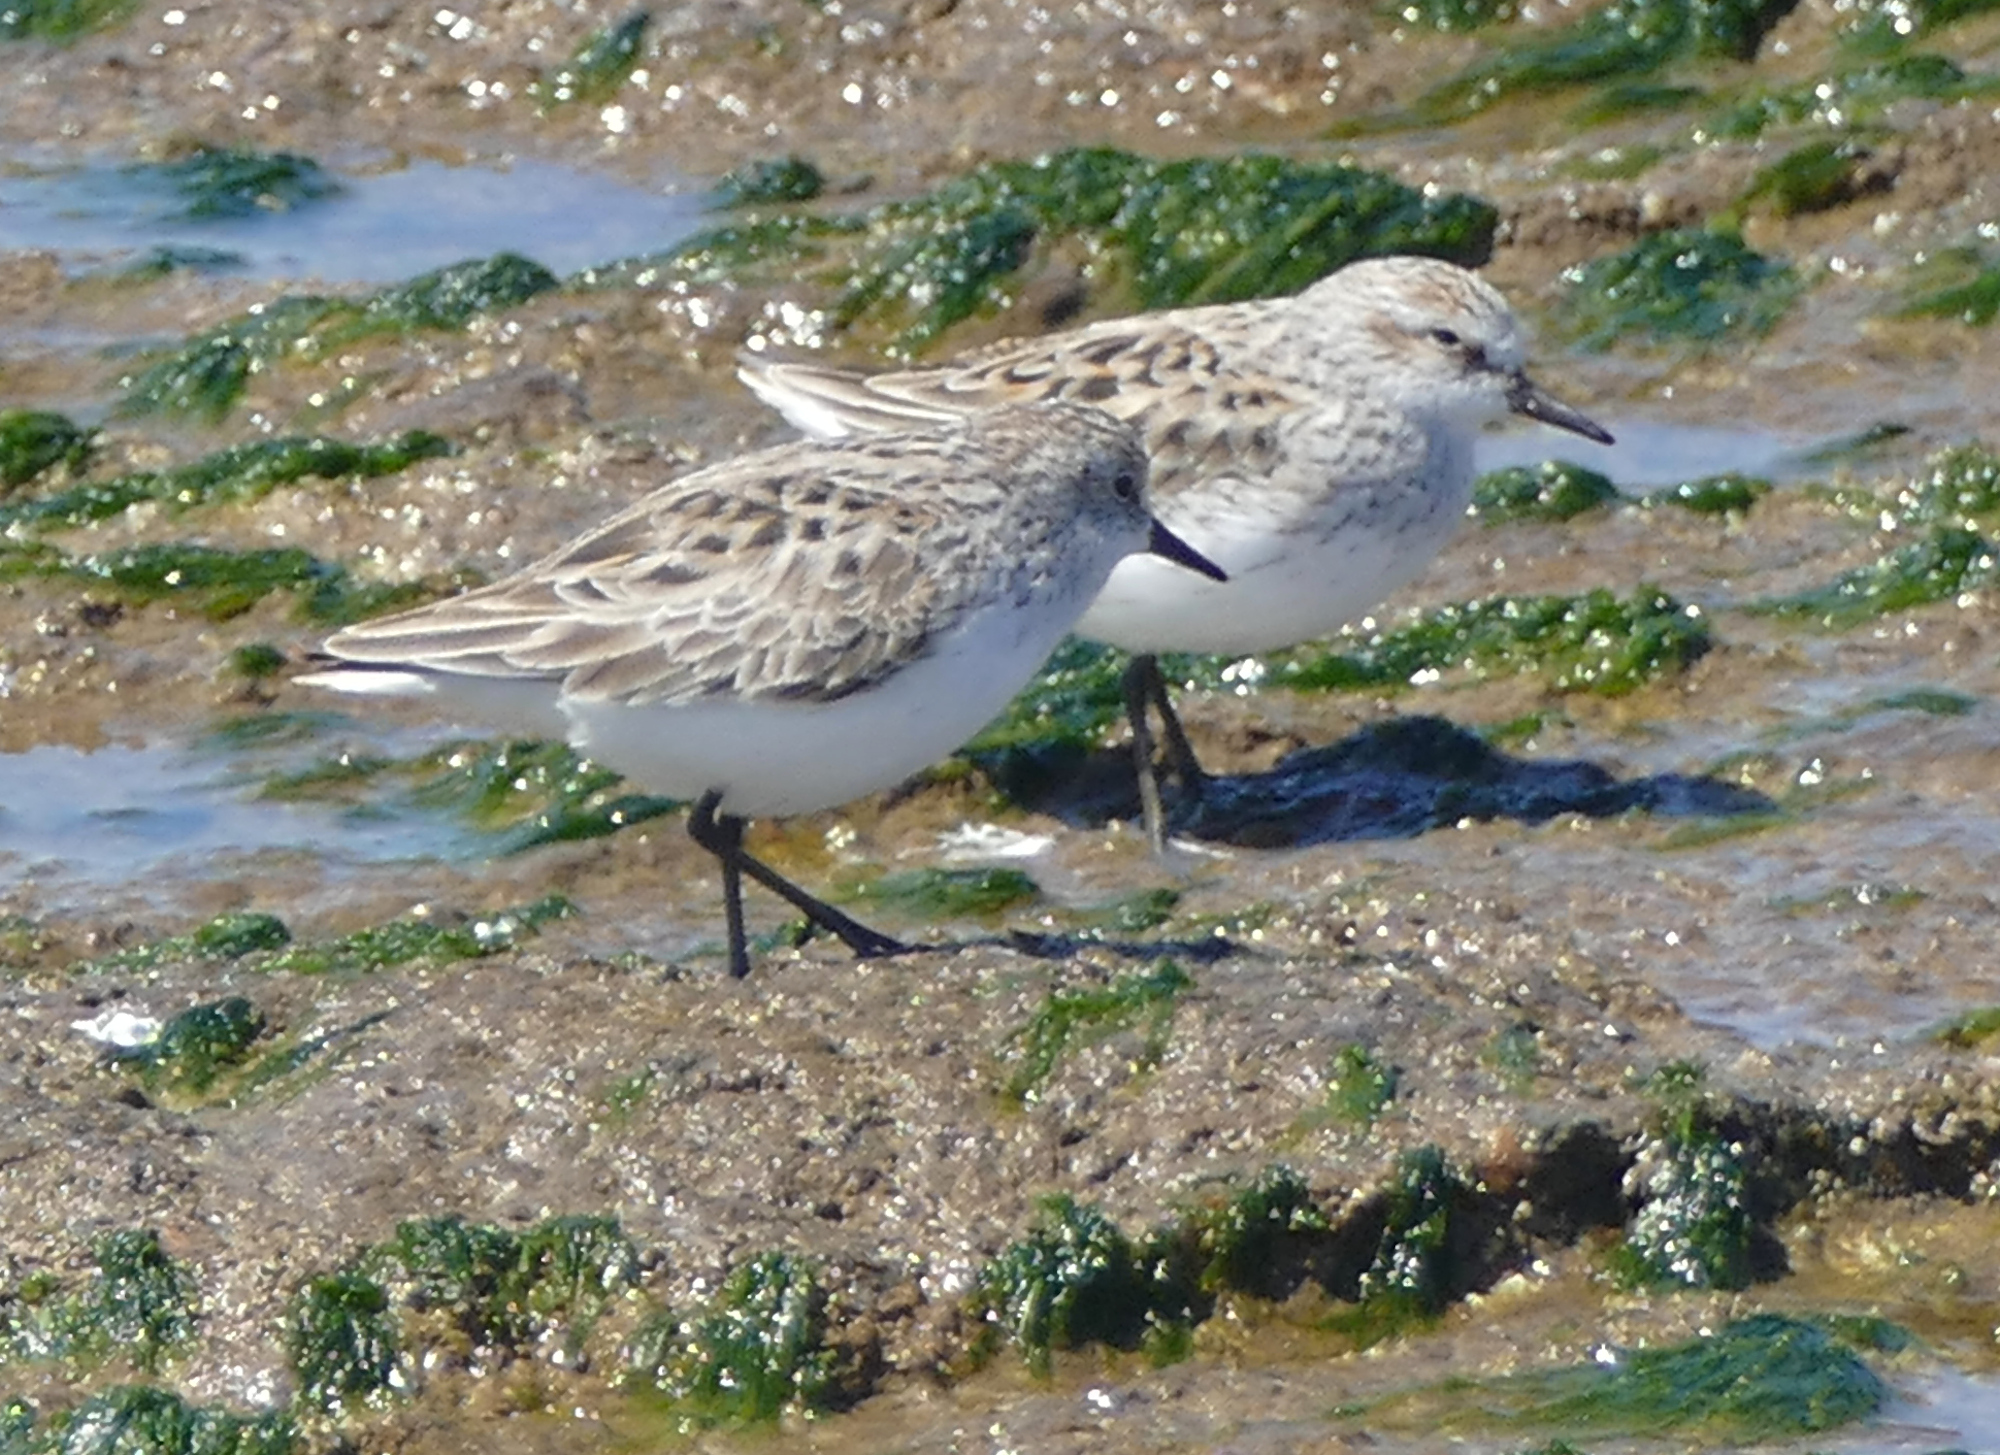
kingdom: Animalia
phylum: Chordata
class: Aves
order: Charadriiformes
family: Scolopacidae
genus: Calidris
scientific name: Calidris pusilla
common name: Semipalmated sandpiper
